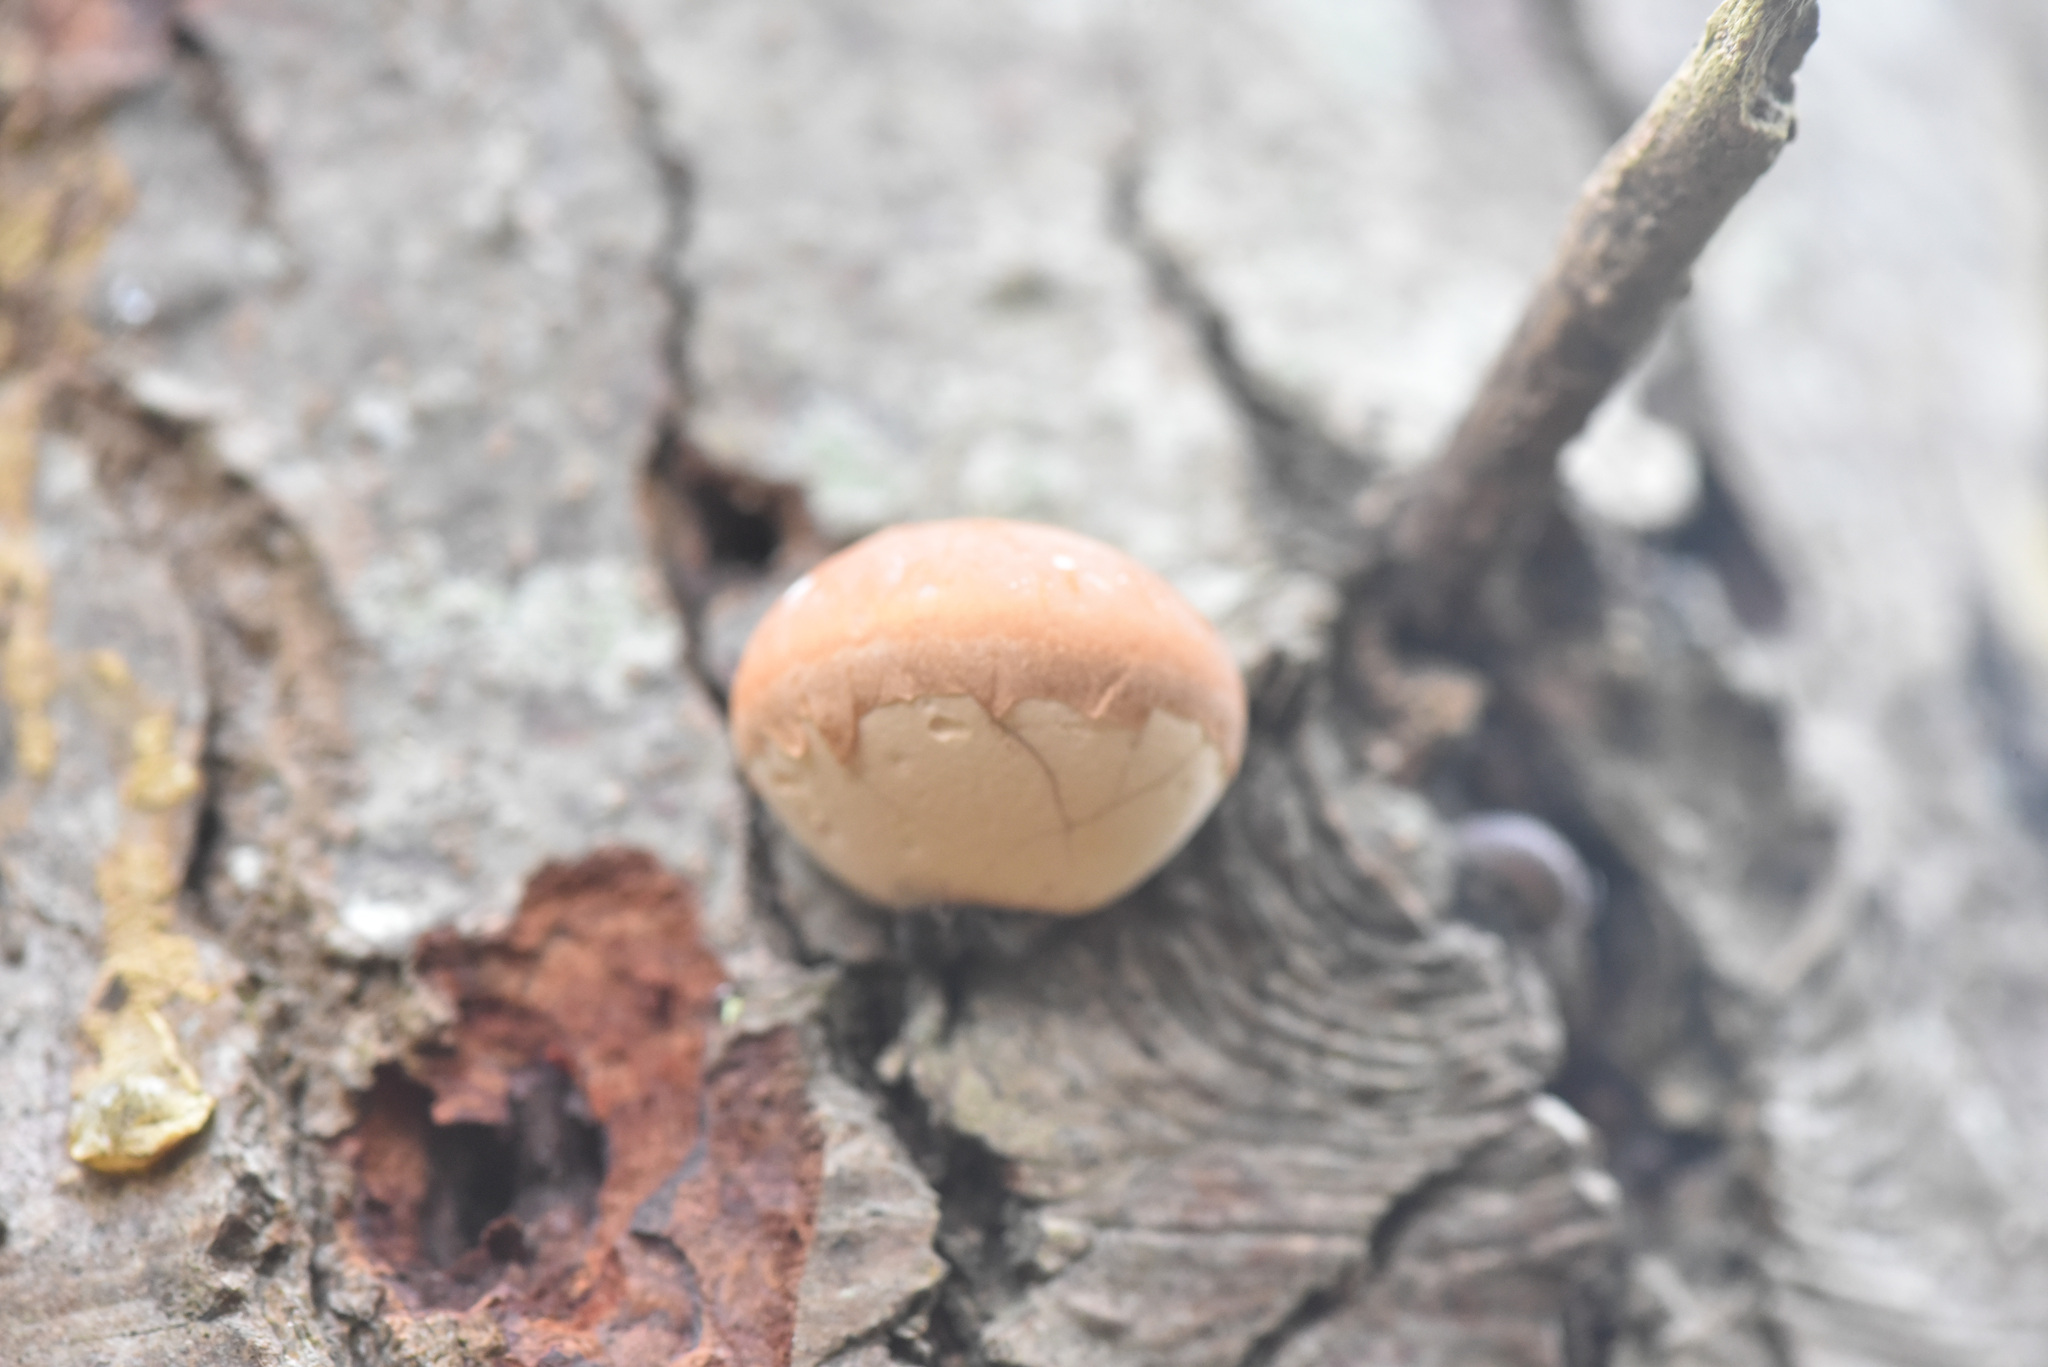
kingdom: Fungi
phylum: Basidiomycota
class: Agaricomycetes
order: Polyporales
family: Polyporaceae
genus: Cryptoporus
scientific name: Cryptoporus volvatus
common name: Veiled polypore
